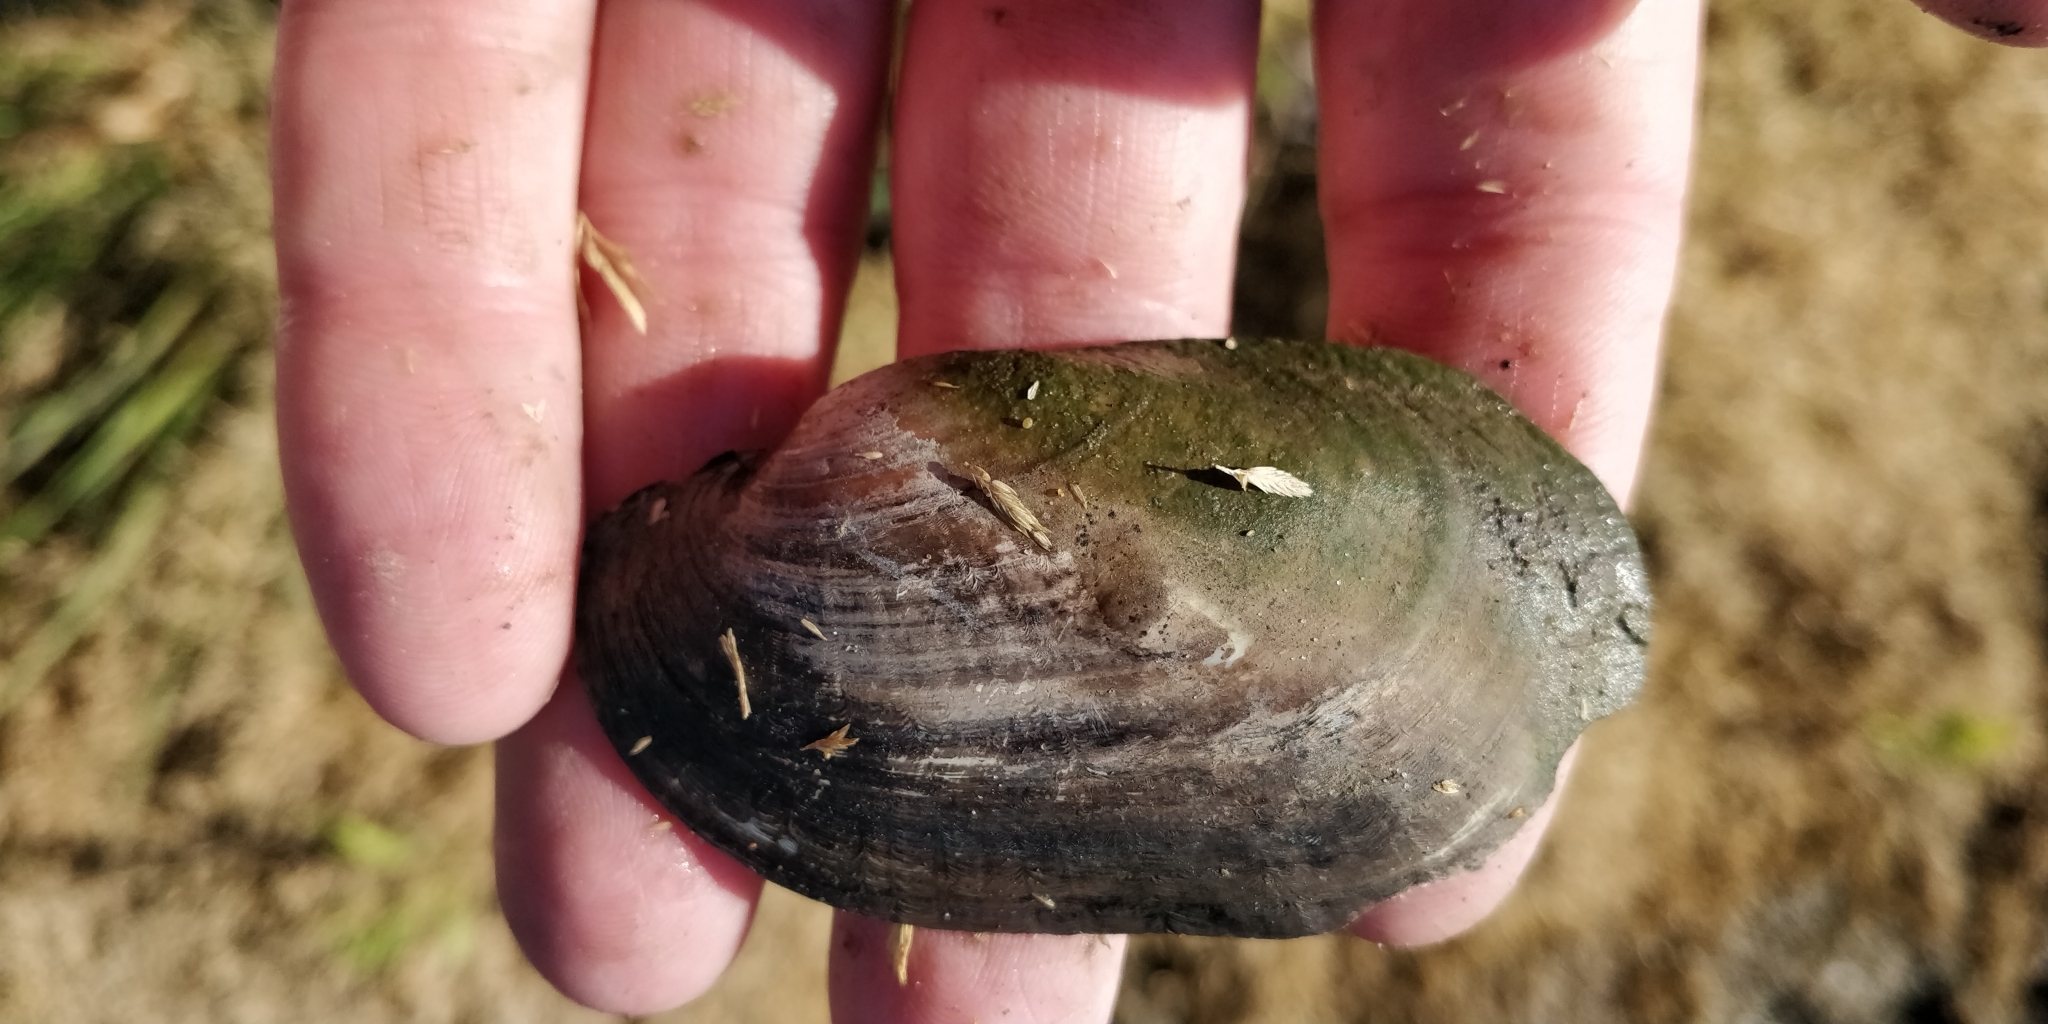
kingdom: Animalia
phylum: Mollusca
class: Bivalvia
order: Unionida
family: Unionidae
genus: Lampsilis
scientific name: Lampsilis siliquoidea
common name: Fatmucket
